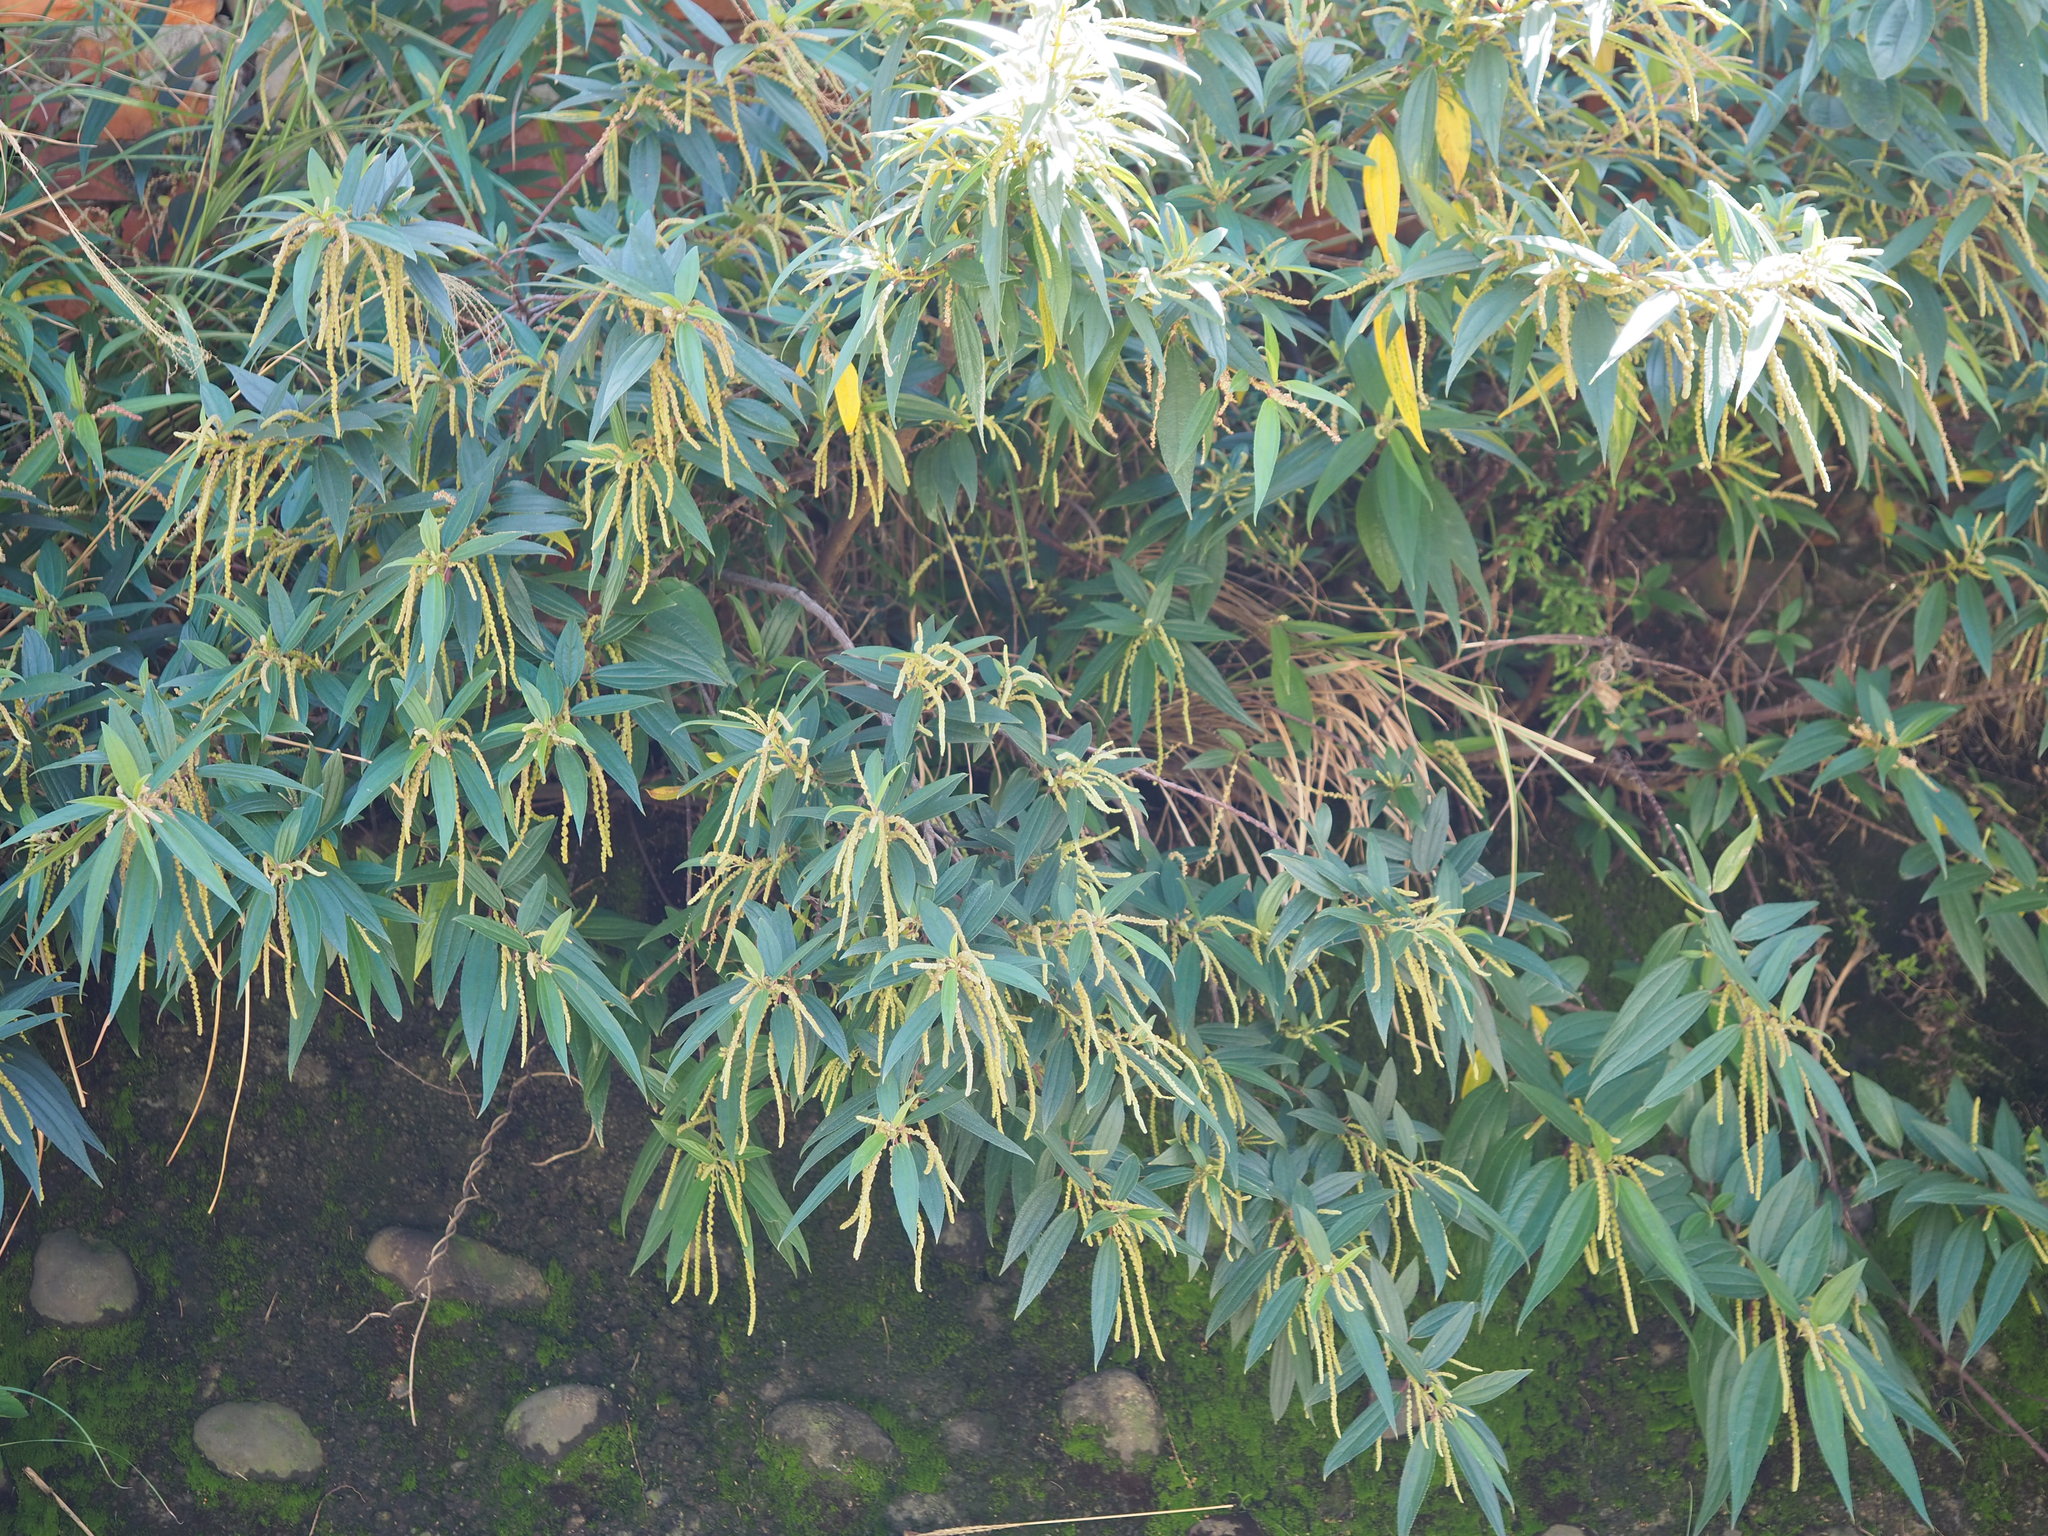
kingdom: Plantae
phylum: Tracheophyta
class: Magnoliopsida
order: Rosales
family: Urticaceae
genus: Boehmeria
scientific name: Boehmeria densiflora
